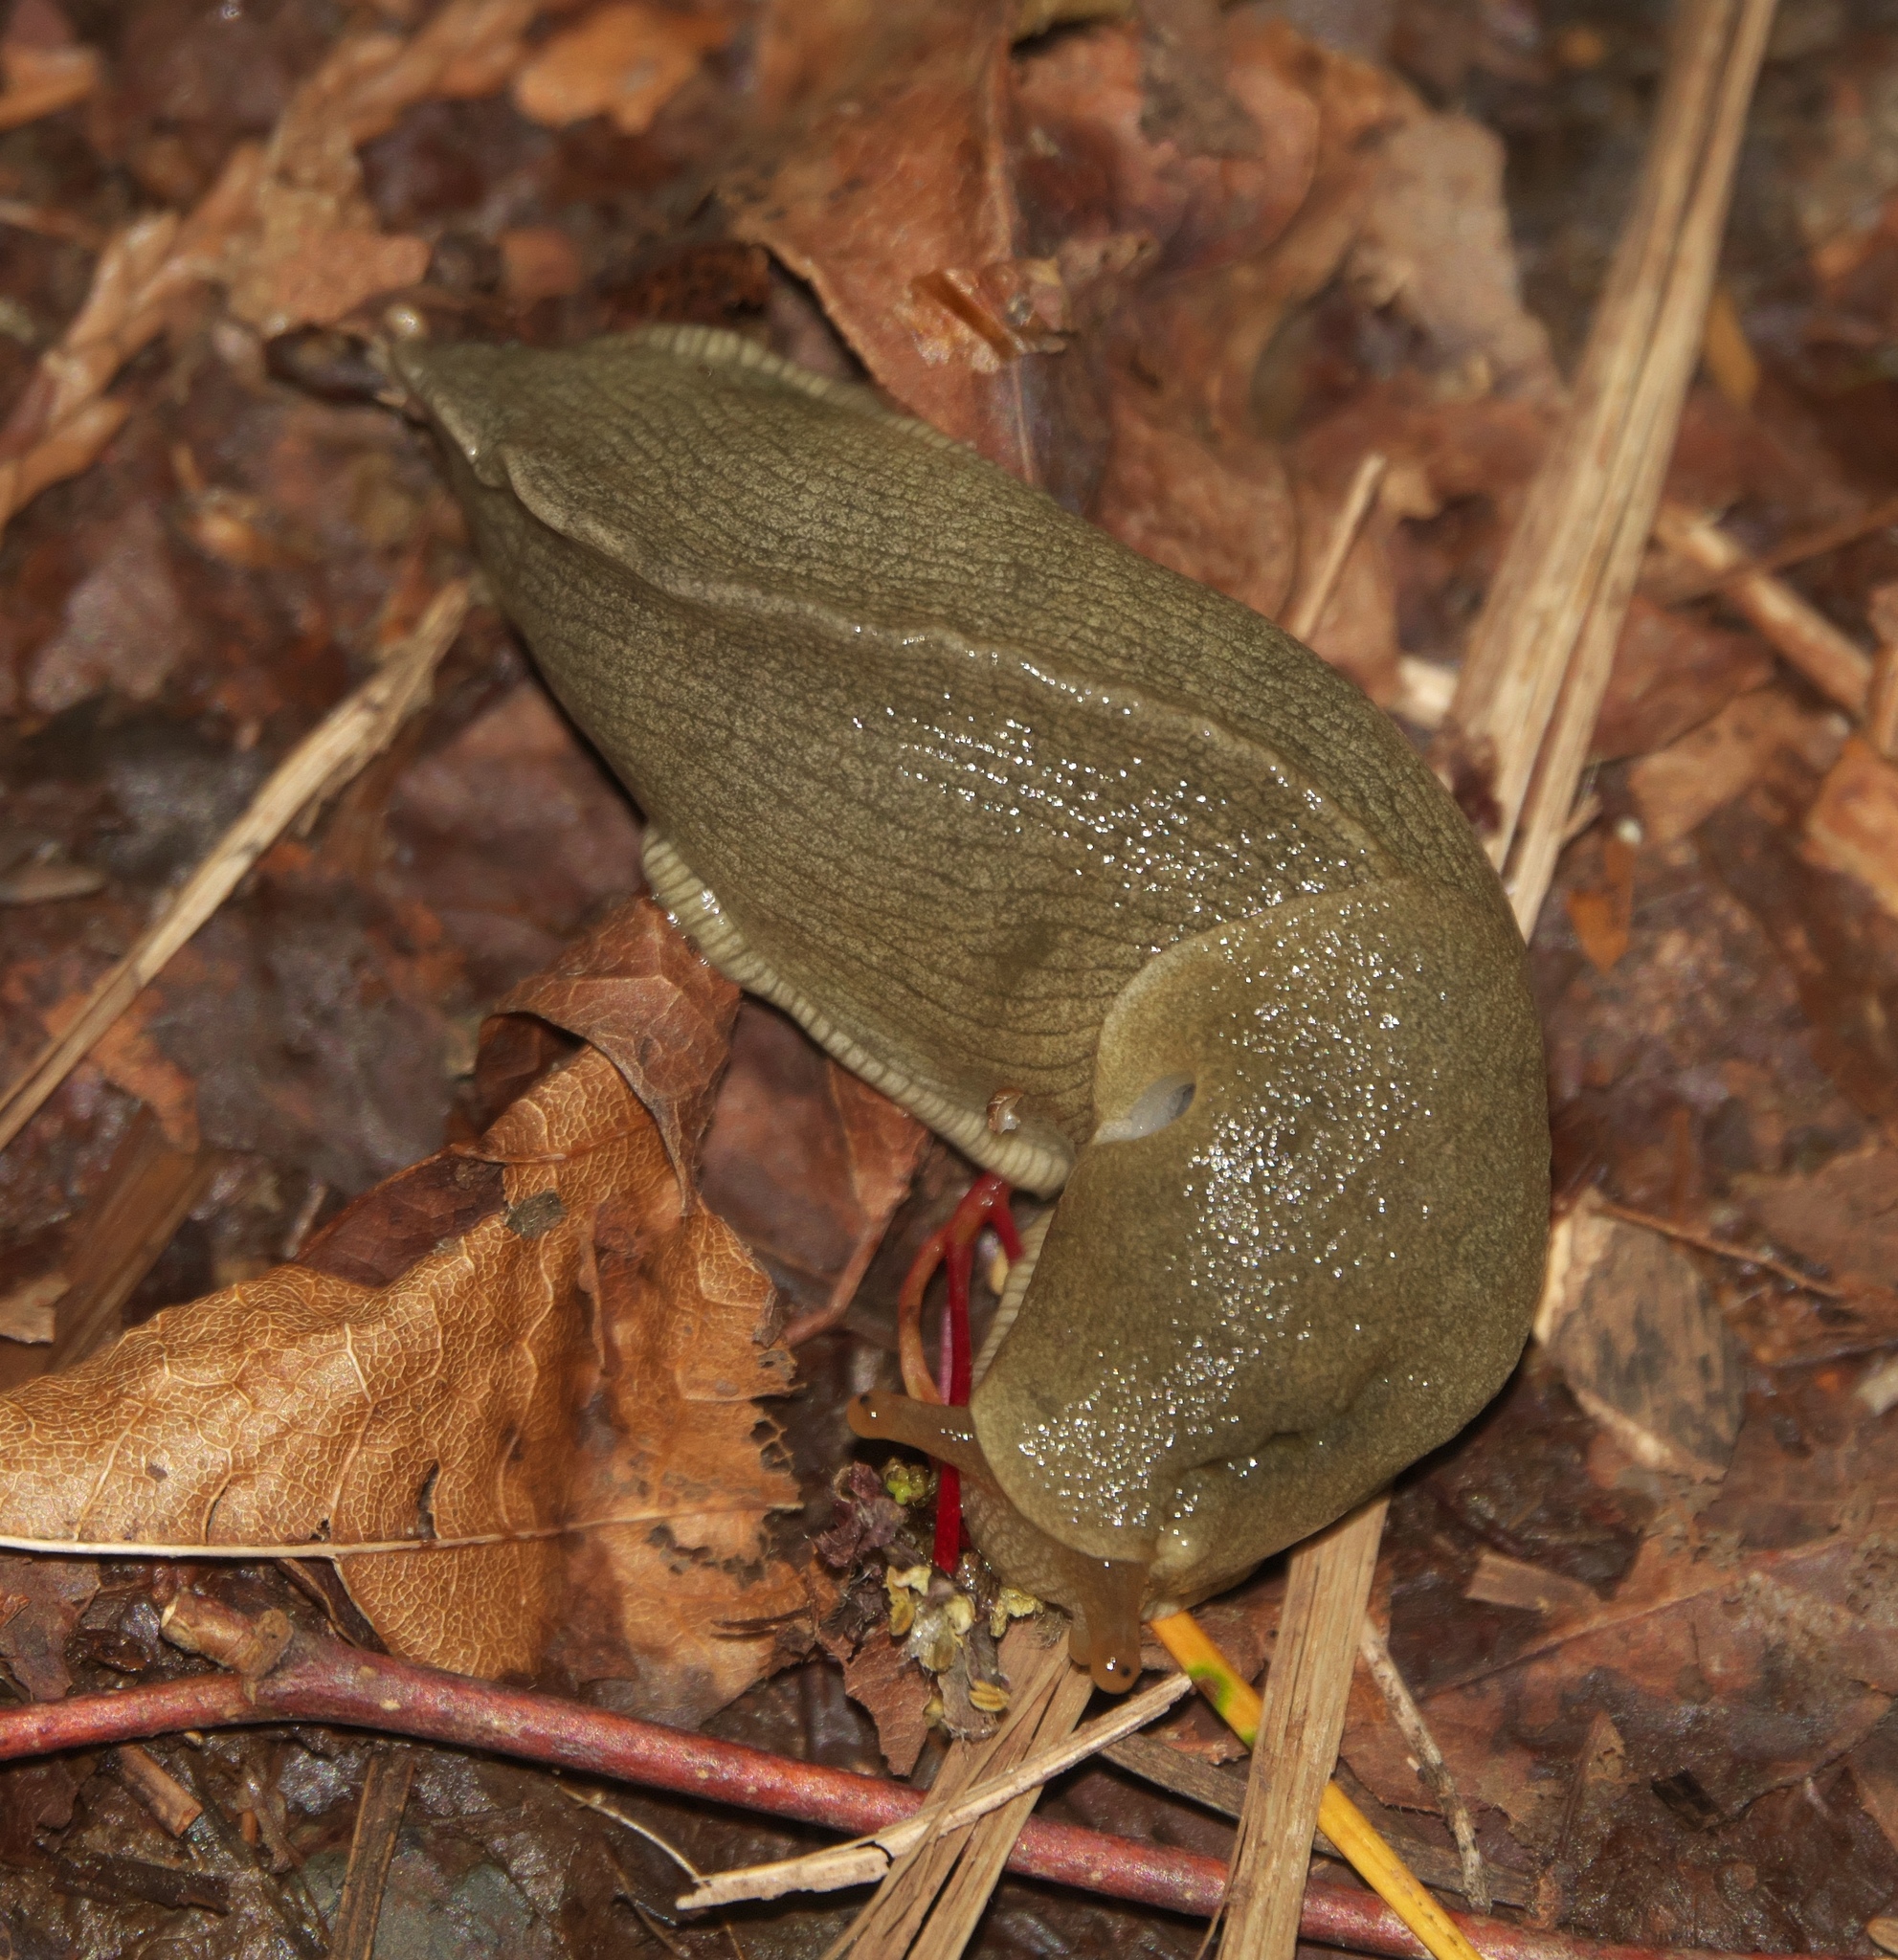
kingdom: Animalia
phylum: Mollusca
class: Gastropoda
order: Stylommatophora
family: Ariolimacidae
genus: Ariolimax
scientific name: Ariolimax columbianus
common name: Pacific banana slug
